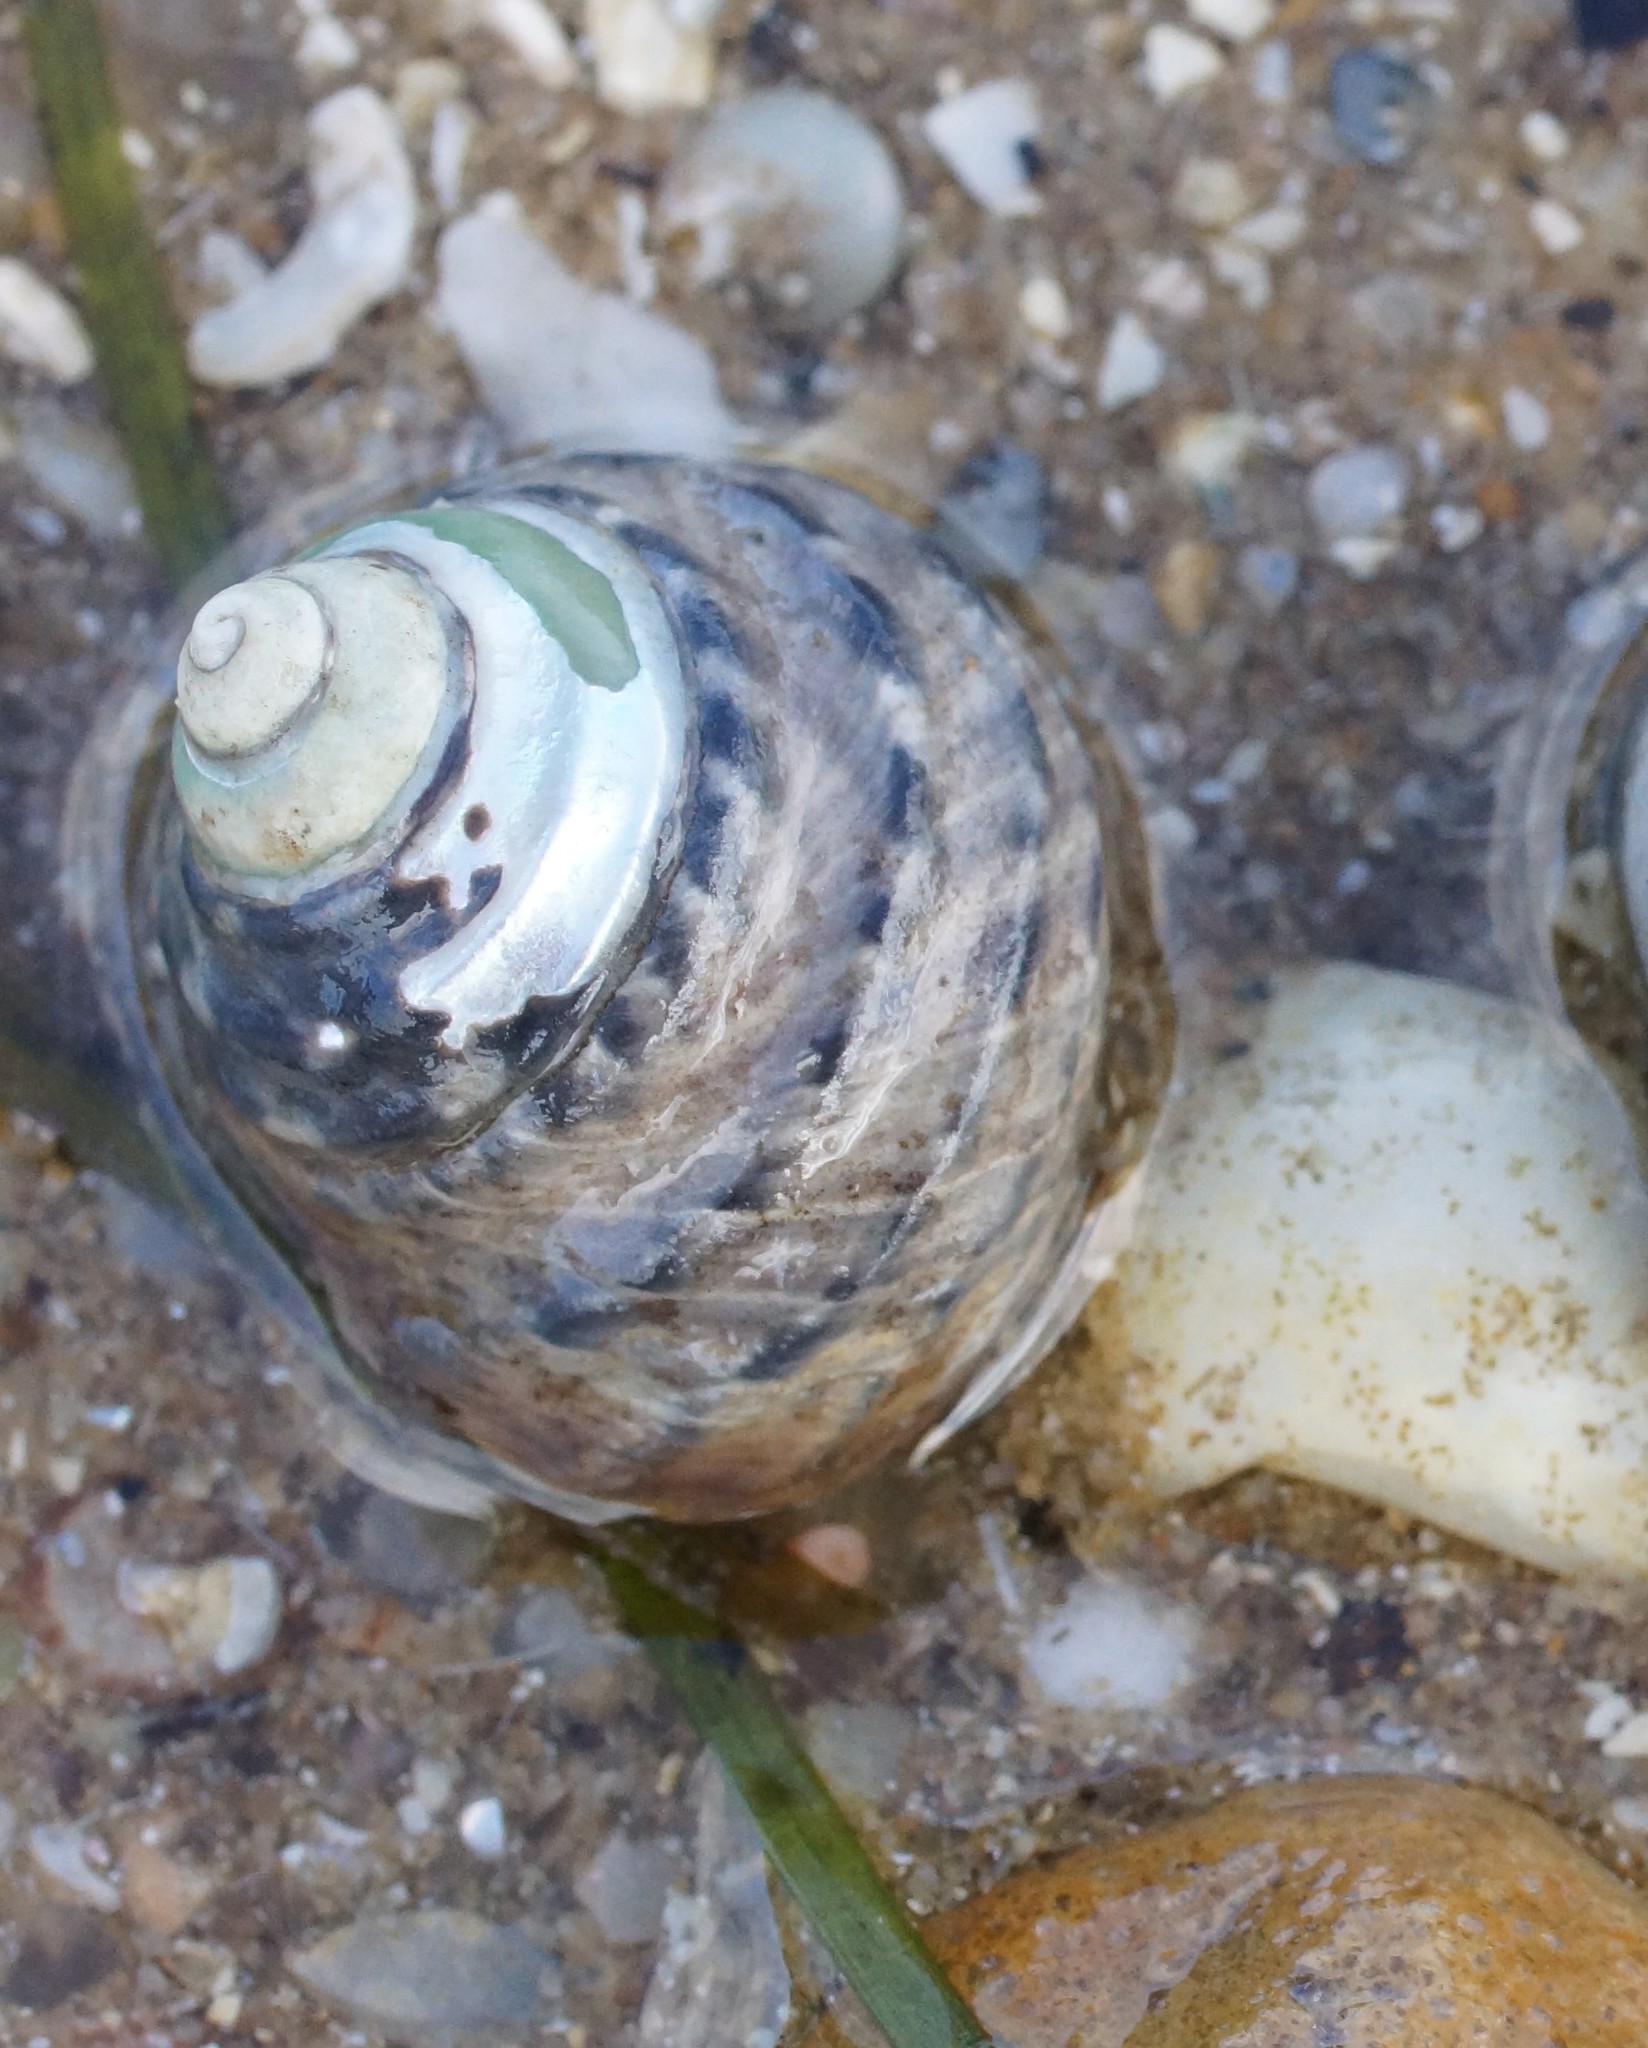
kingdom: Animalia
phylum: Mollusca
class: Gastropoda
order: Trochida
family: Trochidae
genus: Austrocochlea
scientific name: Austrocochlea constricta
